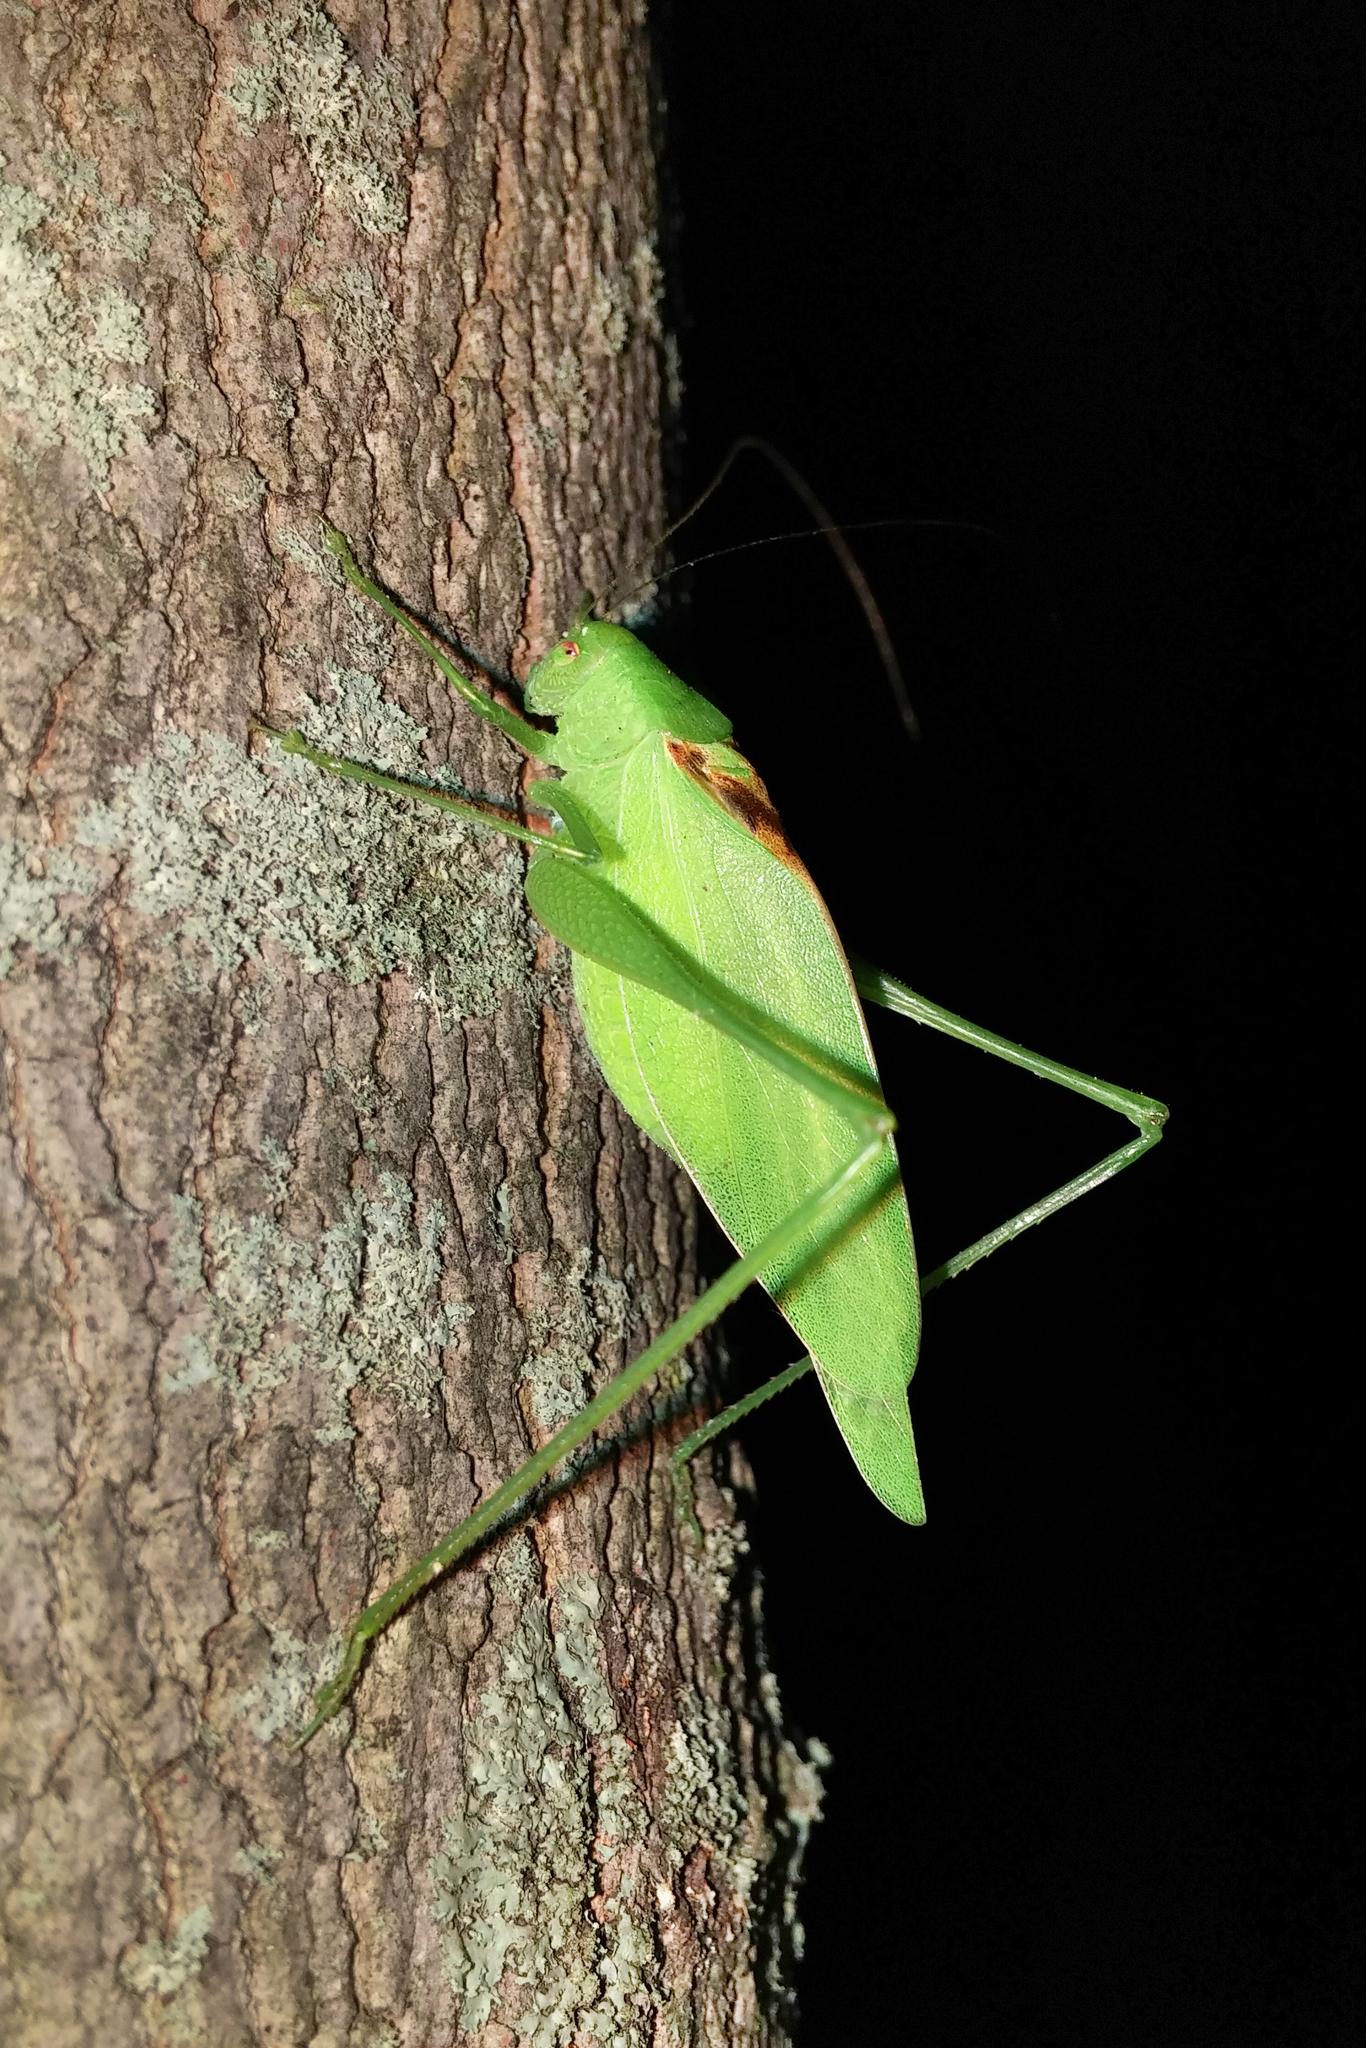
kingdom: Animalia
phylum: Arthropoda
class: Insecta
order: Orthoptera
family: Tettigoniidae
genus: Amblycorypha
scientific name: Amblycorypha rotundifolia
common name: Rattler round-winged katydid
